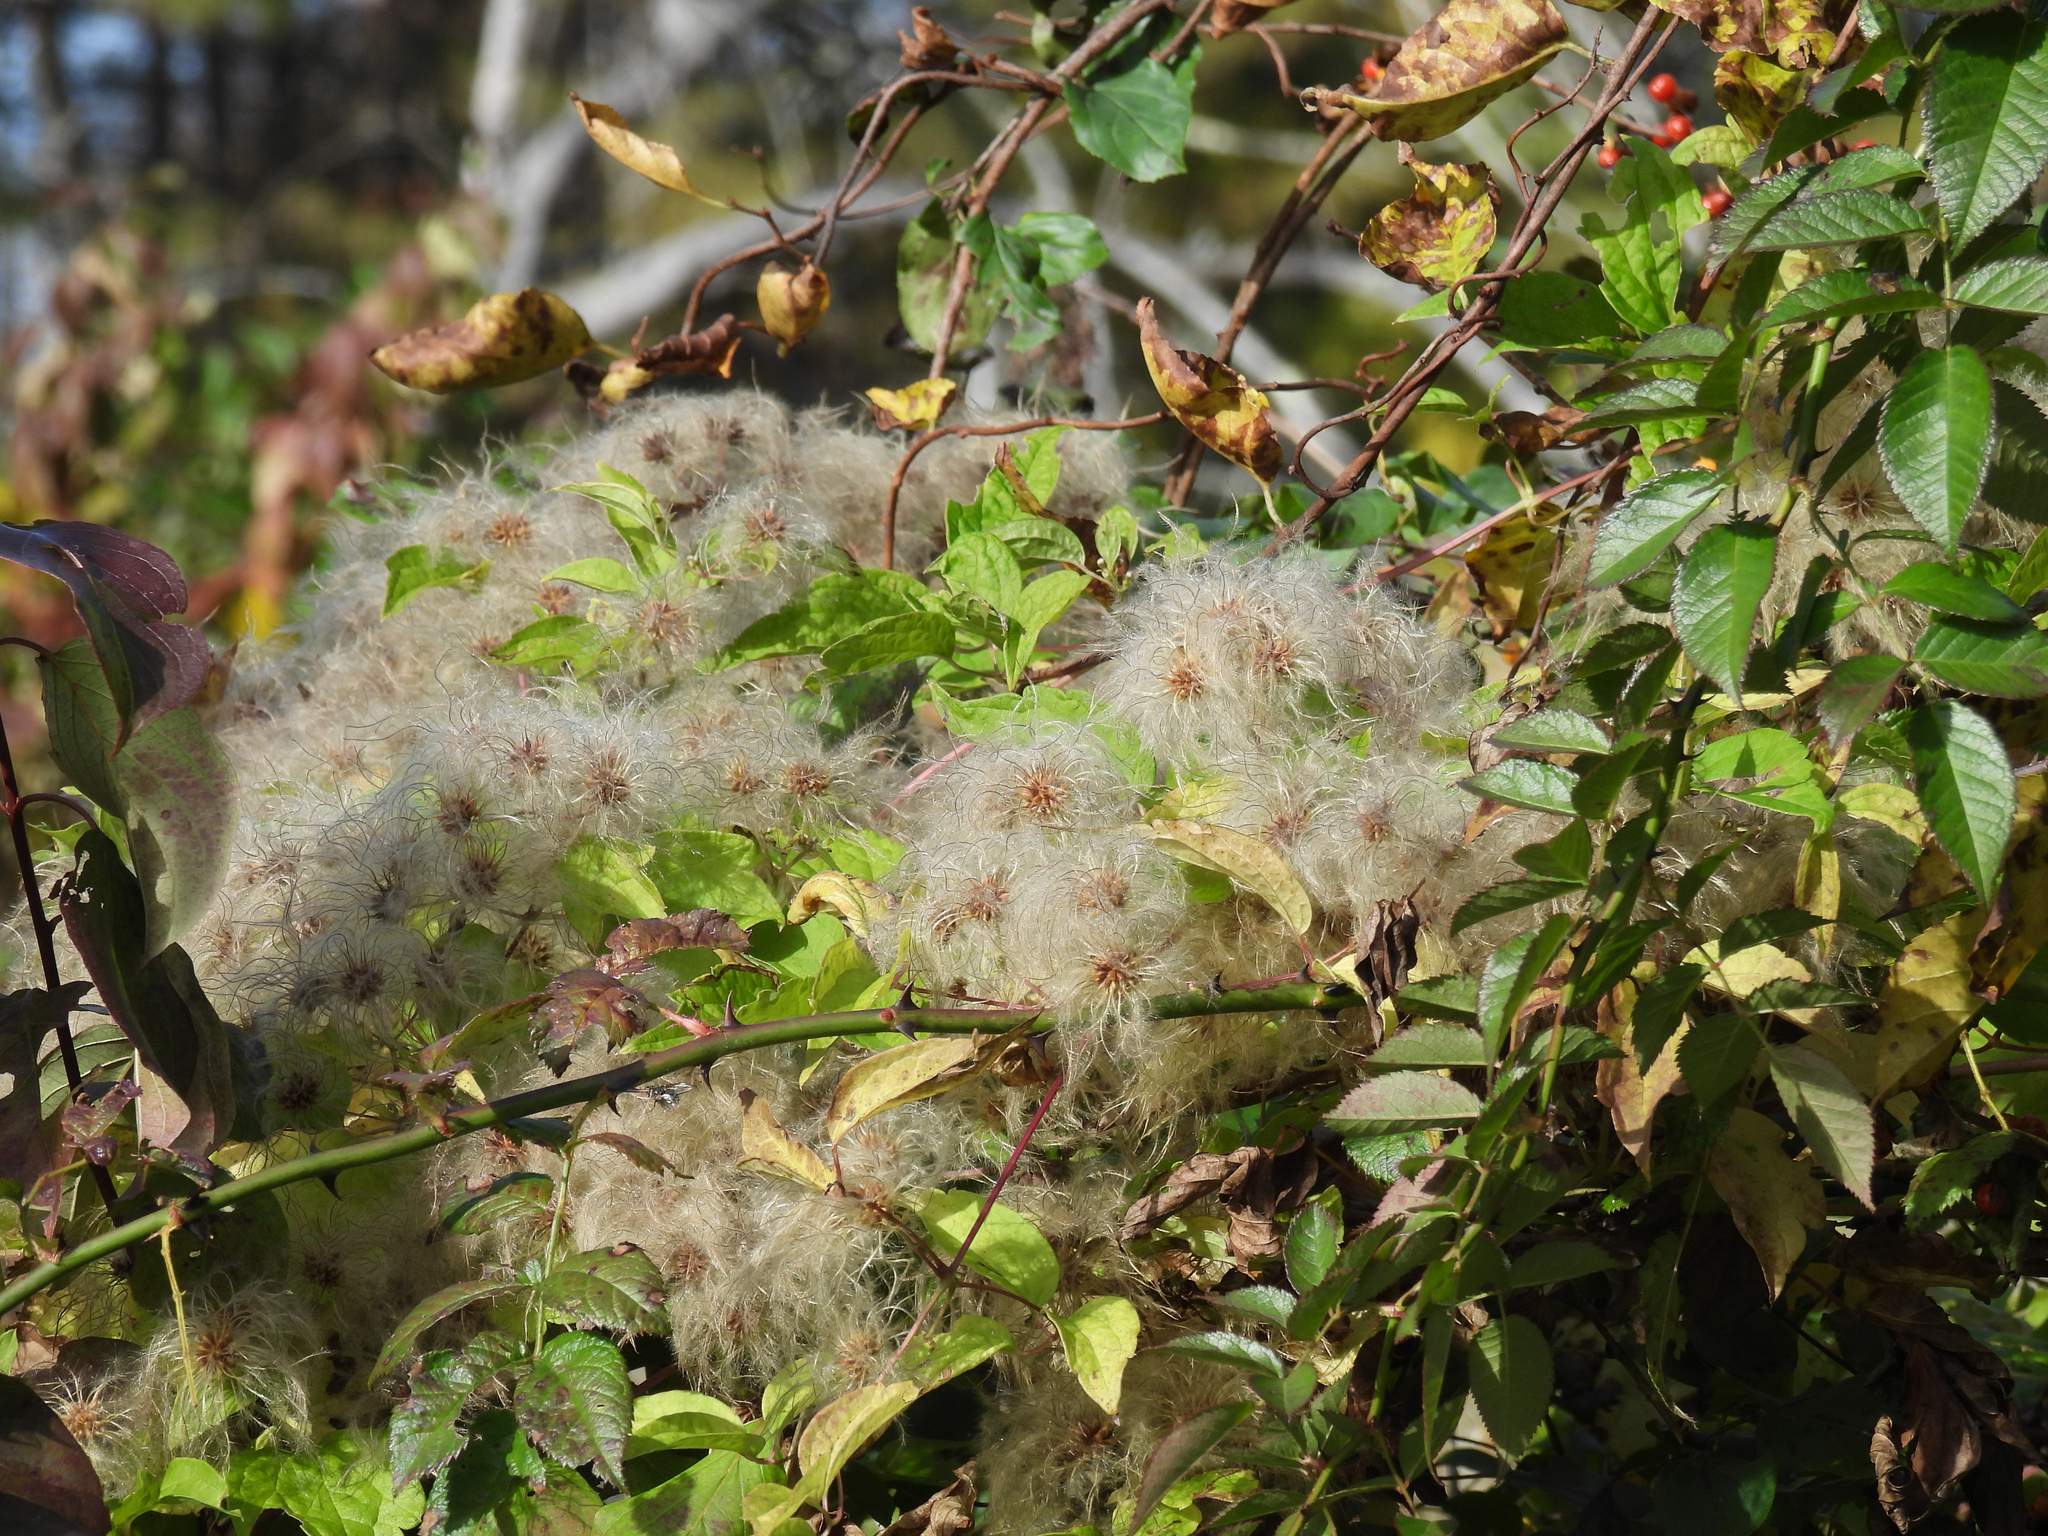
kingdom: Plantae
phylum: Tracheophyta
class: Magnoliopsida
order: Ranunculales
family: Ranunculaceae
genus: Clematis
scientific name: Clematis virginiana
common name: Virgin's-bower
